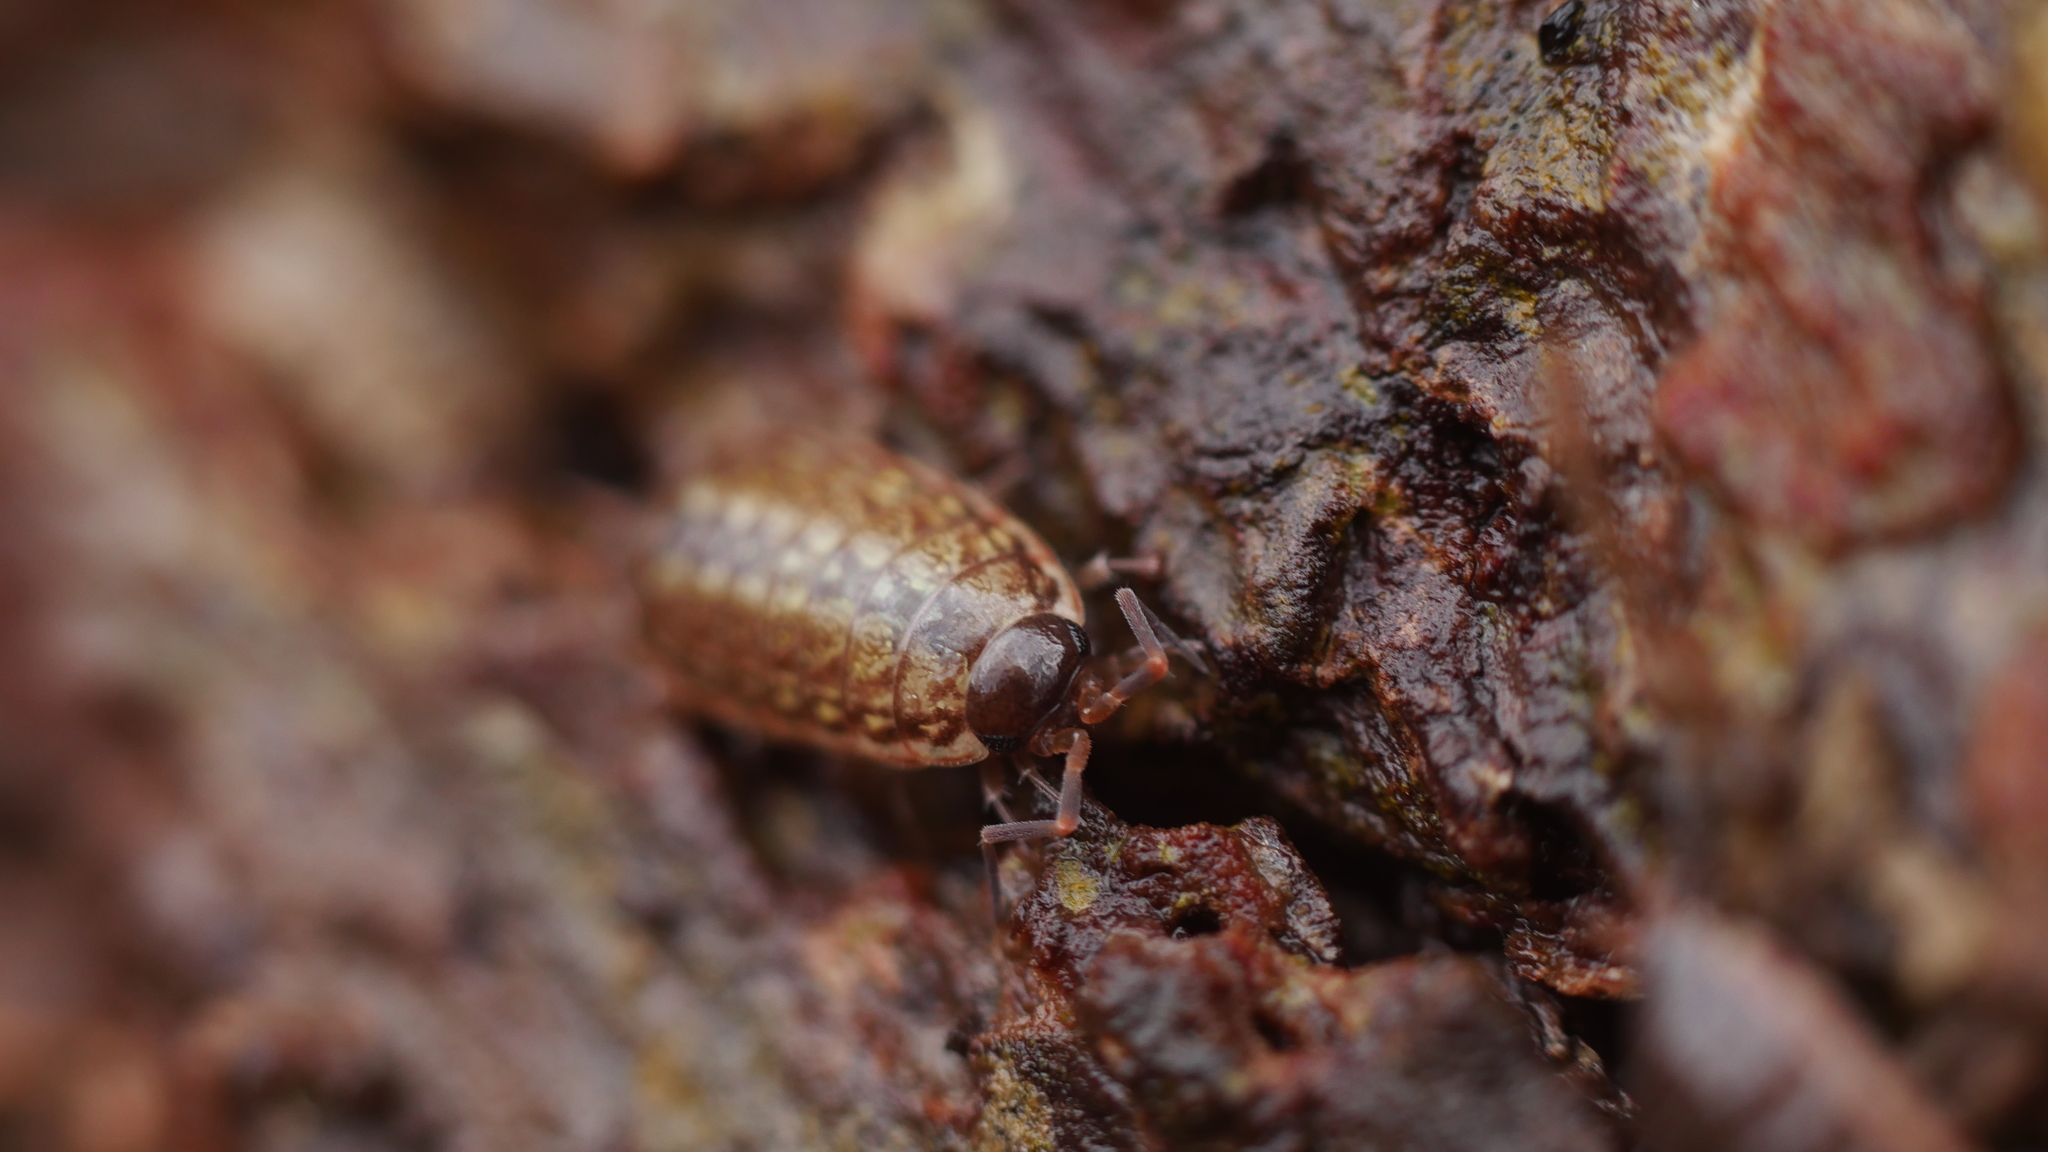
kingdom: Animalia
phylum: Arthropoda
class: Malacostraca
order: Isopoda
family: Philosciidae
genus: Philoscia
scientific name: Philoscia muscorum
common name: Common striped woodlouse
